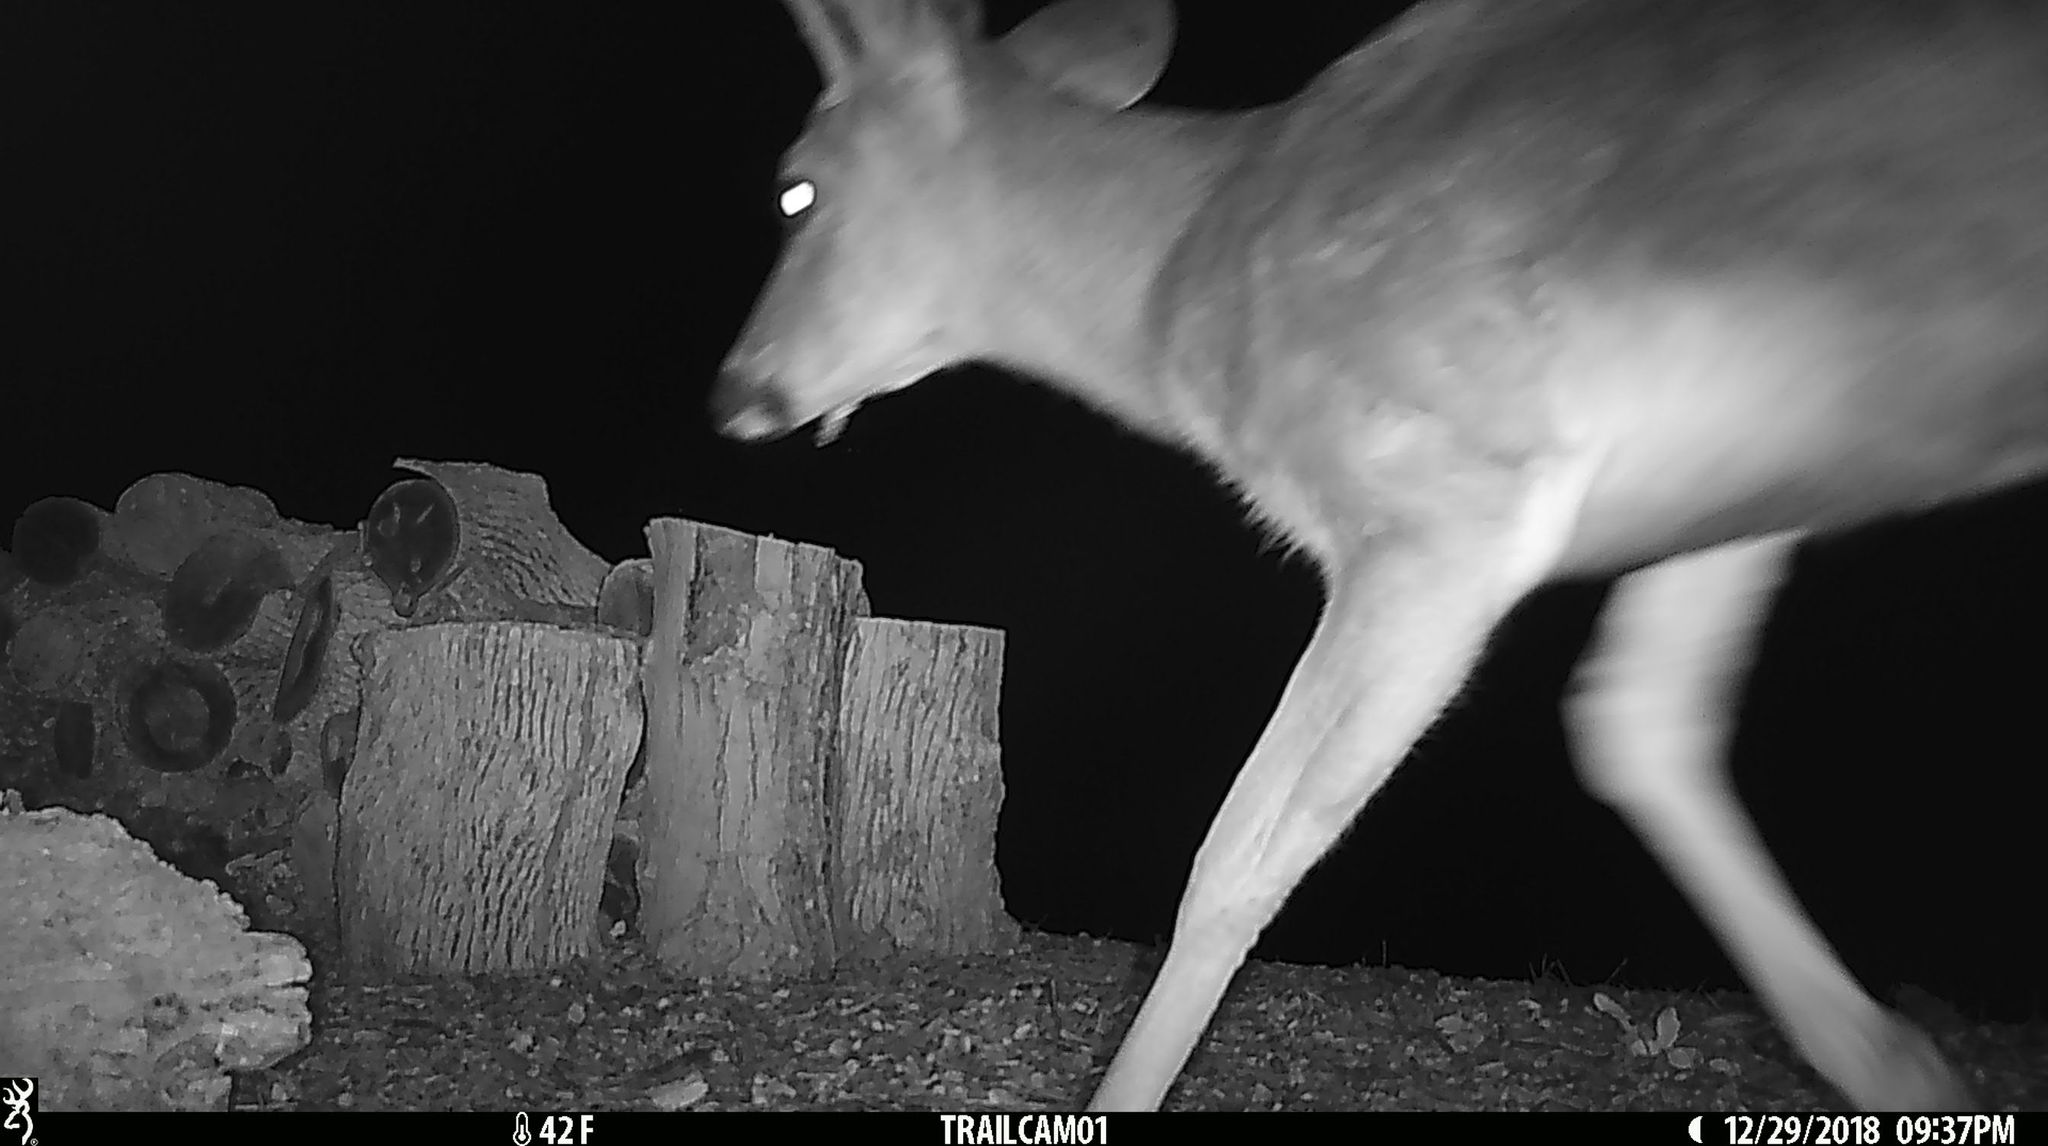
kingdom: Animalia
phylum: Chordata
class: Mammalia
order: Artiodactyla
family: Cervidae
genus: Odocoileus
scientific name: Odocoileus hemionus
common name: Mule deer
